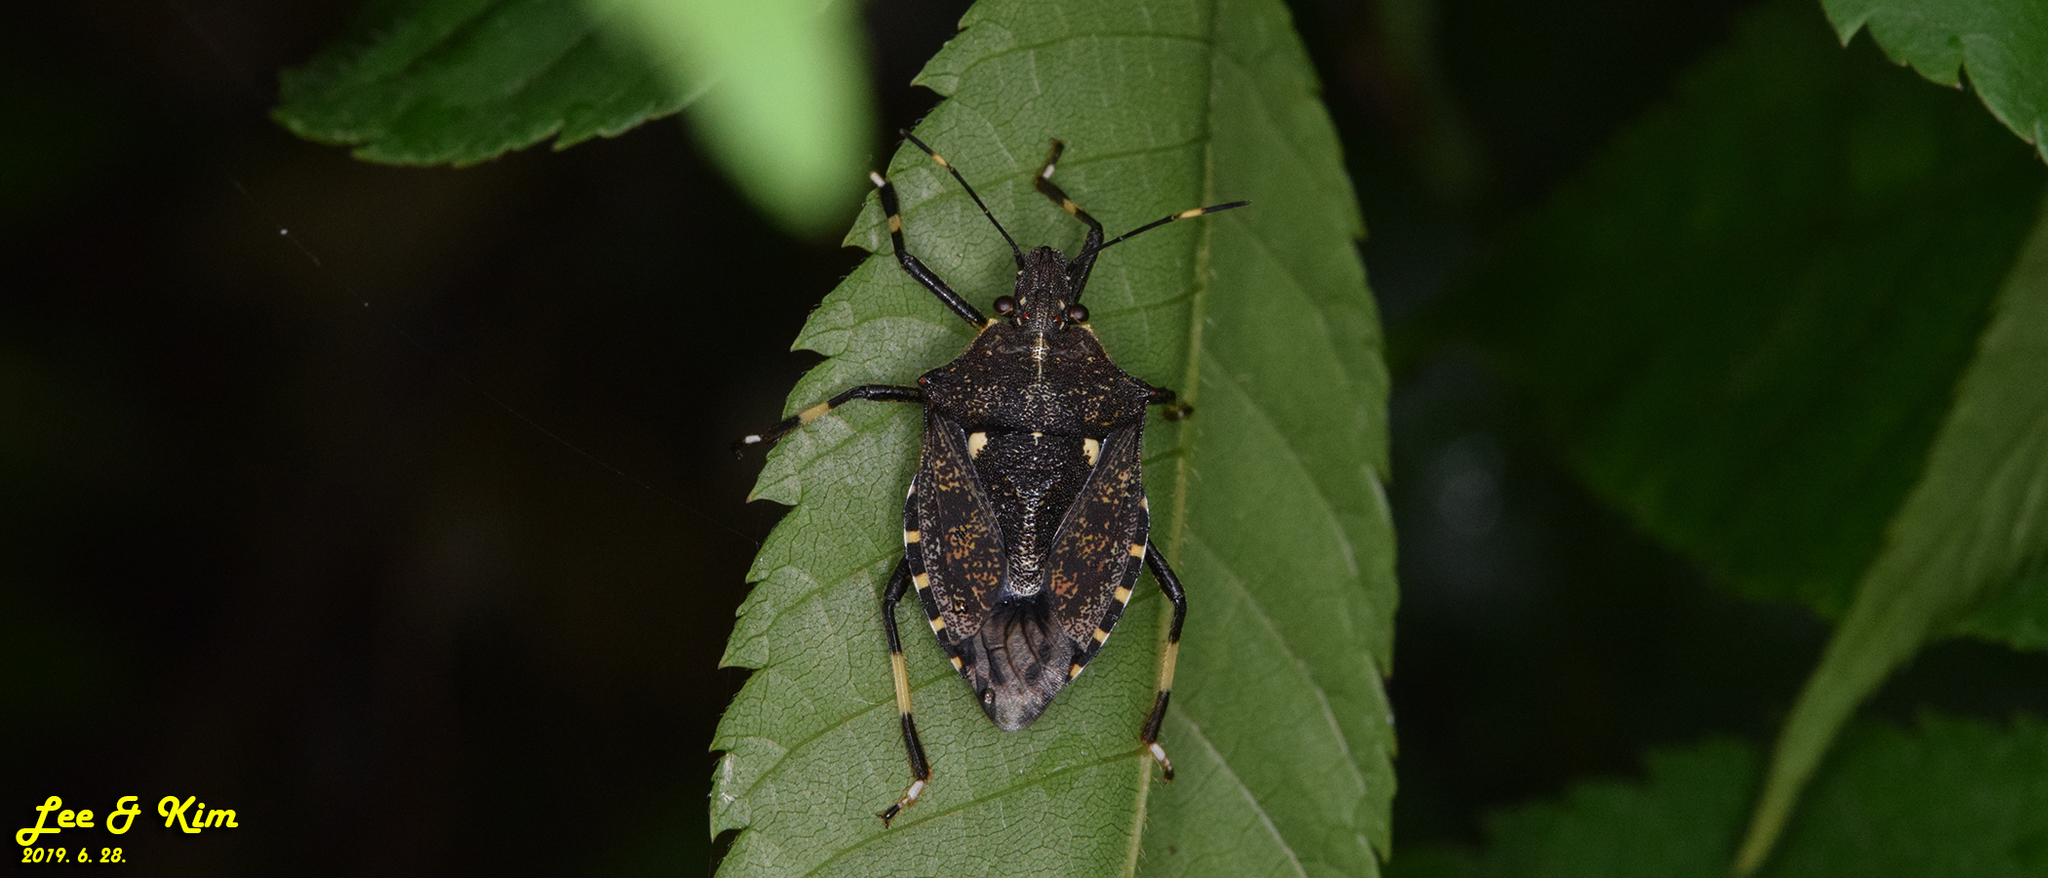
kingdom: Animalia
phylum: Arthropoda
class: Insecta
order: Hemiptera
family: Pentatomidae
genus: Dalpada
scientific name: Dalpada cinctipes
